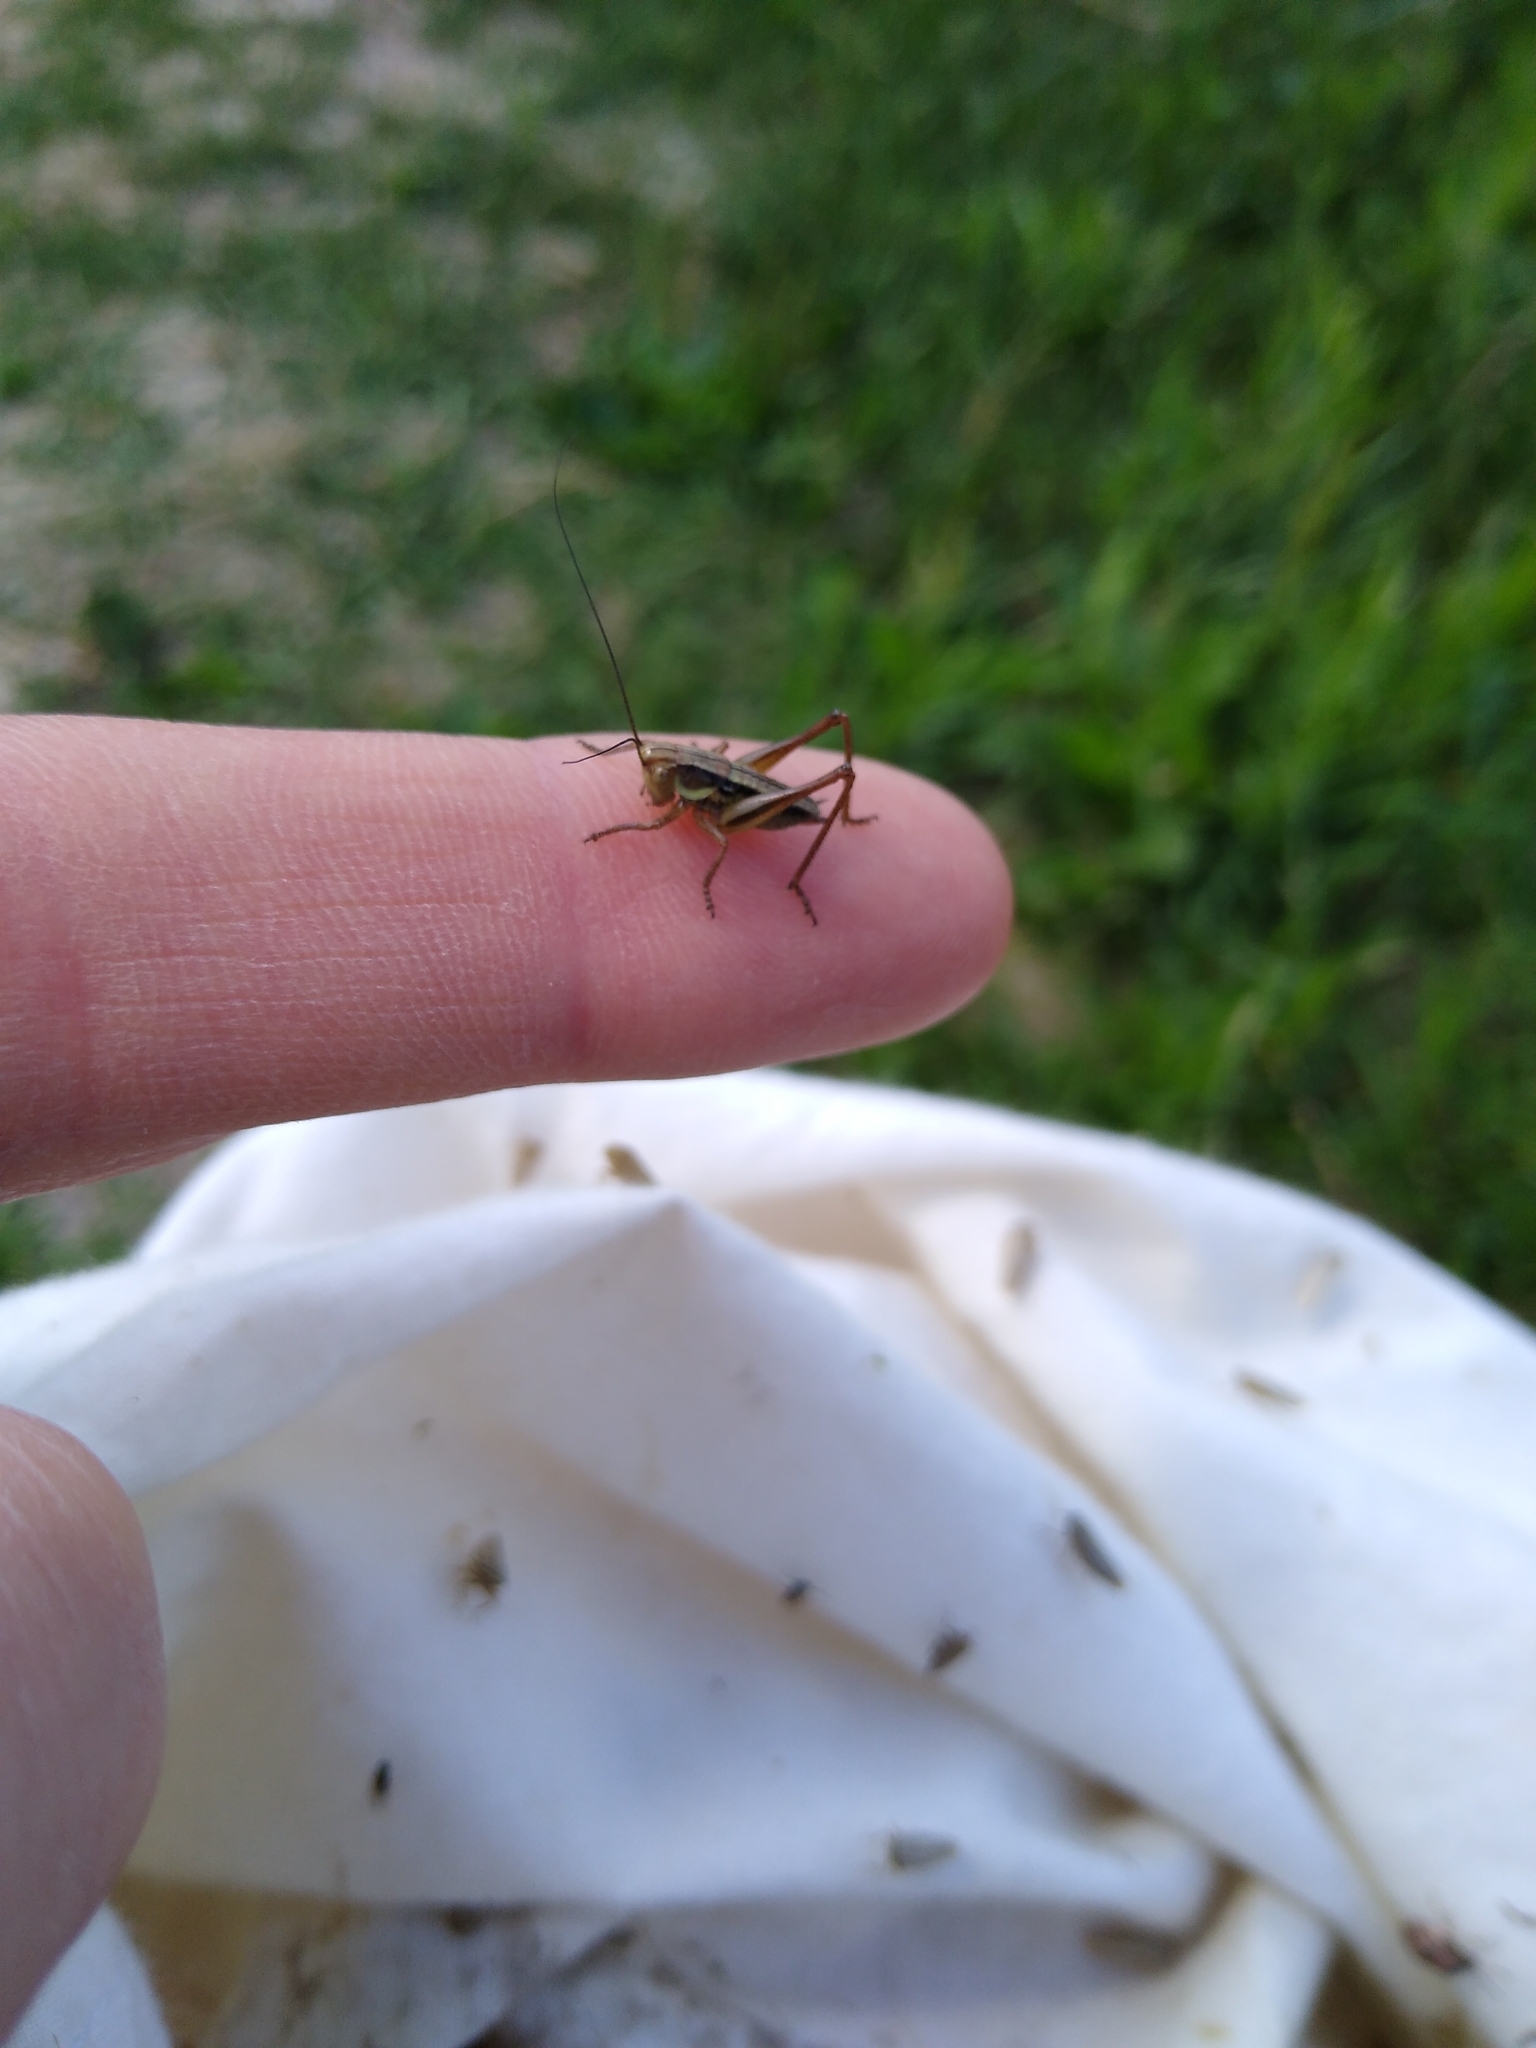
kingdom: Animalia
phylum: Arthropoda
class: Insecta
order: Orthoptera
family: Tettigoniidae
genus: Roeseliana
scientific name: Roeseliana roeselii
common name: Roesel's bush cricket
